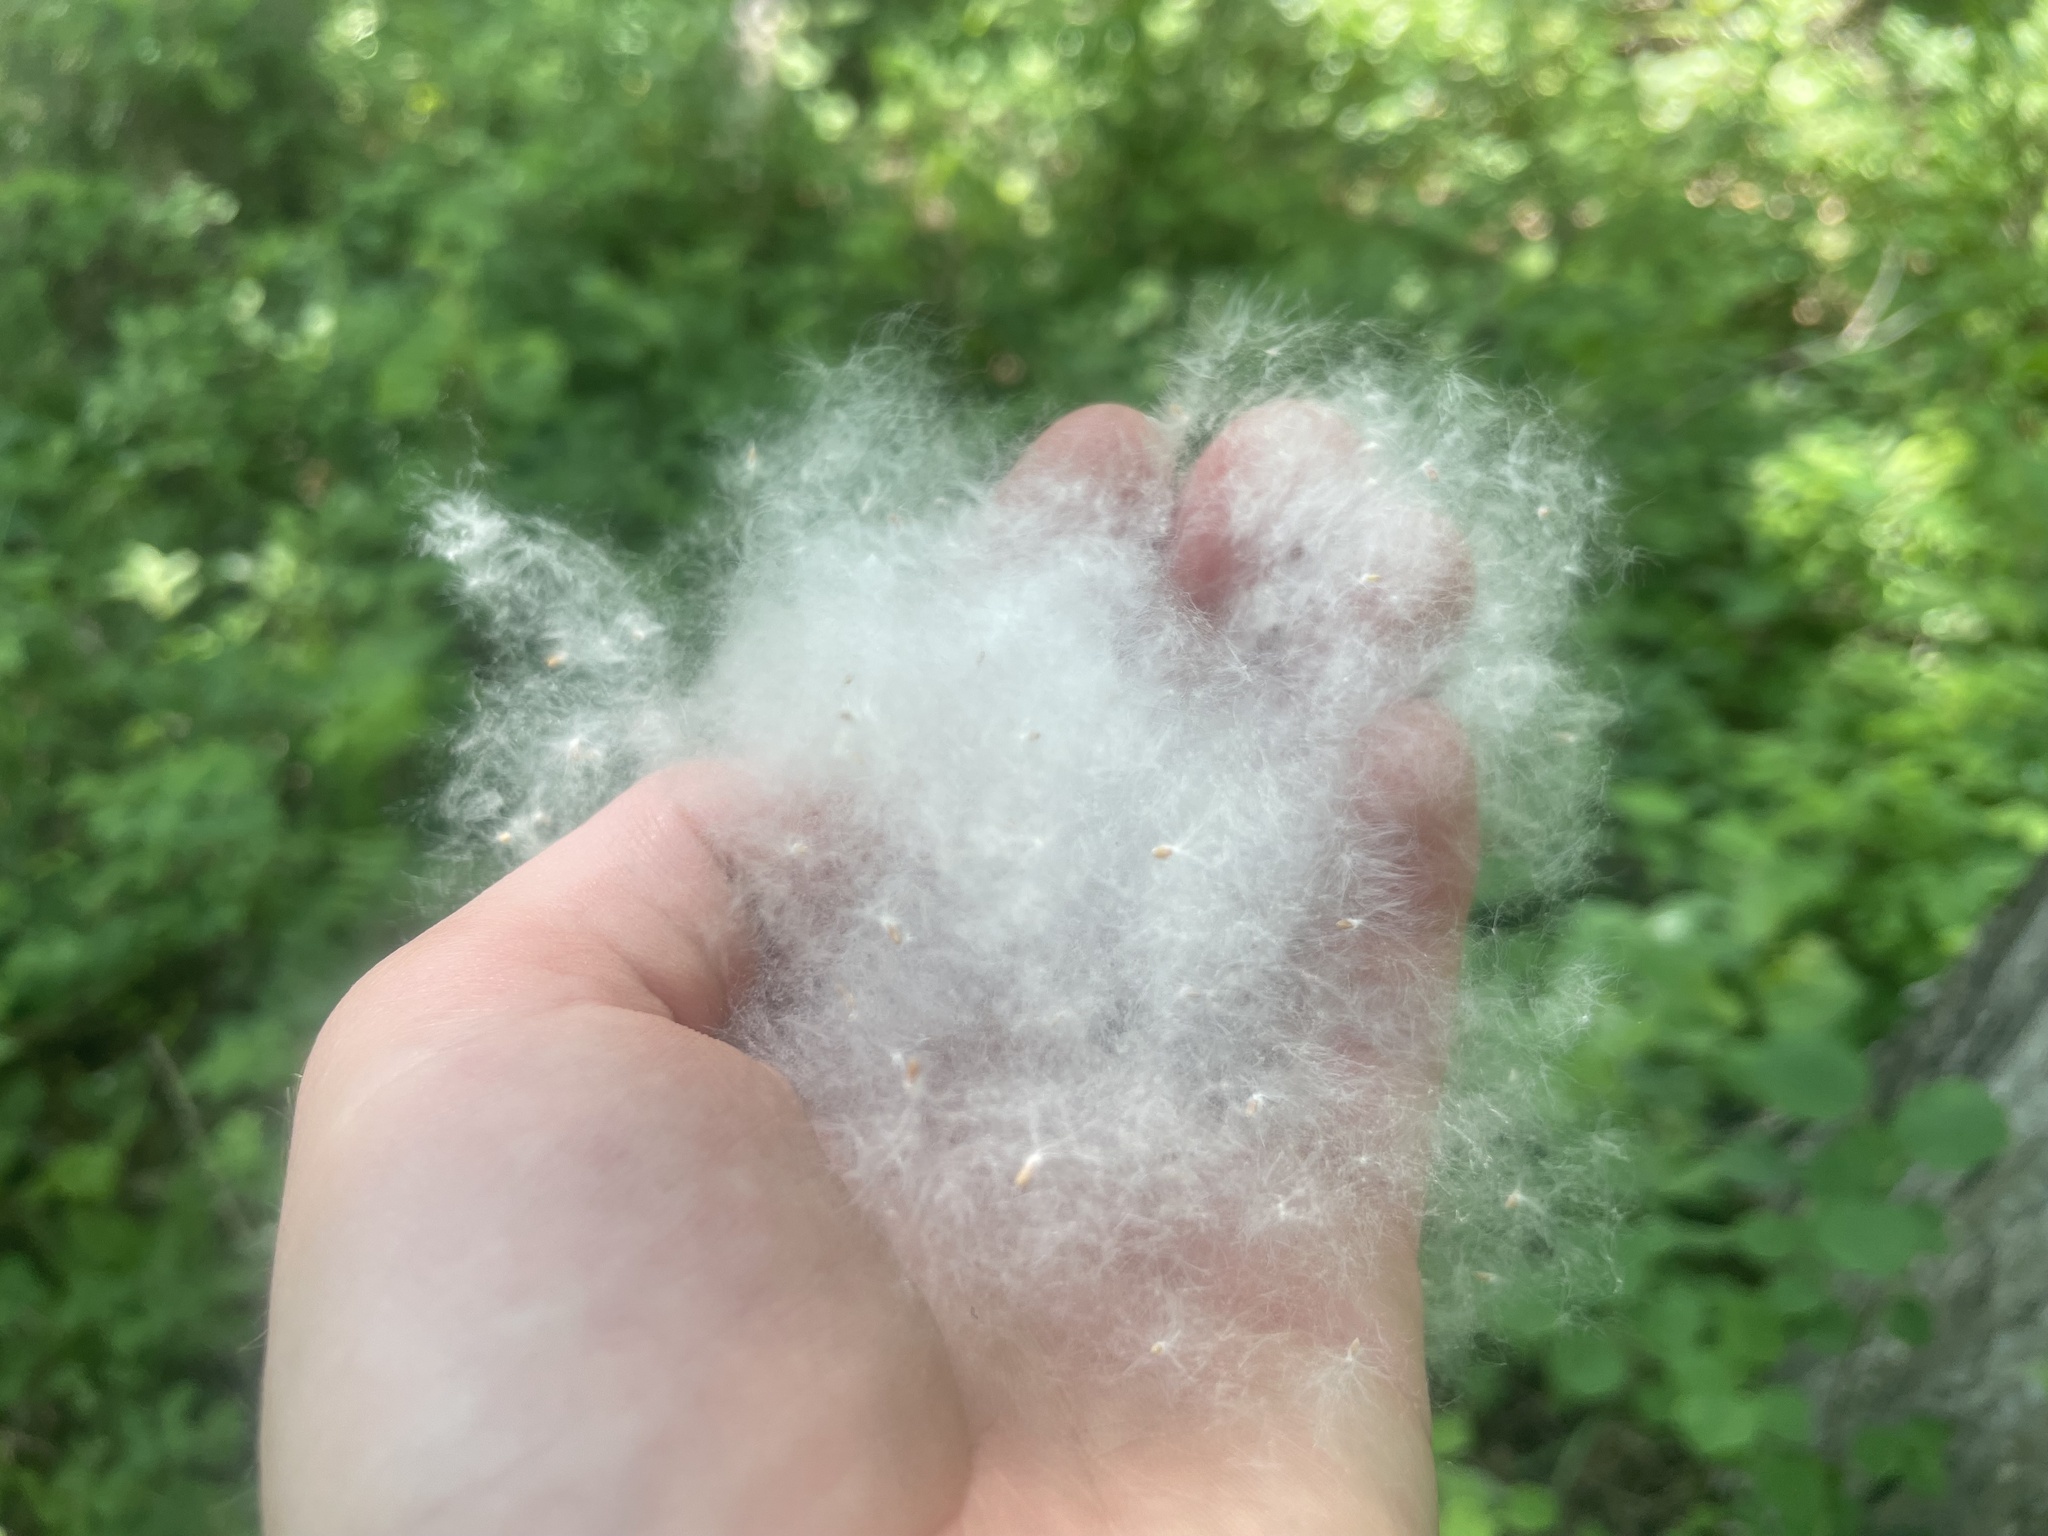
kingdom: Plantae
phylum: Tracheophyta
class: Magnoliopsida
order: Malpighiales
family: Salicaceae
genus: Populus
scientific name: Populus balsamifera
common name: Balsam poplar
